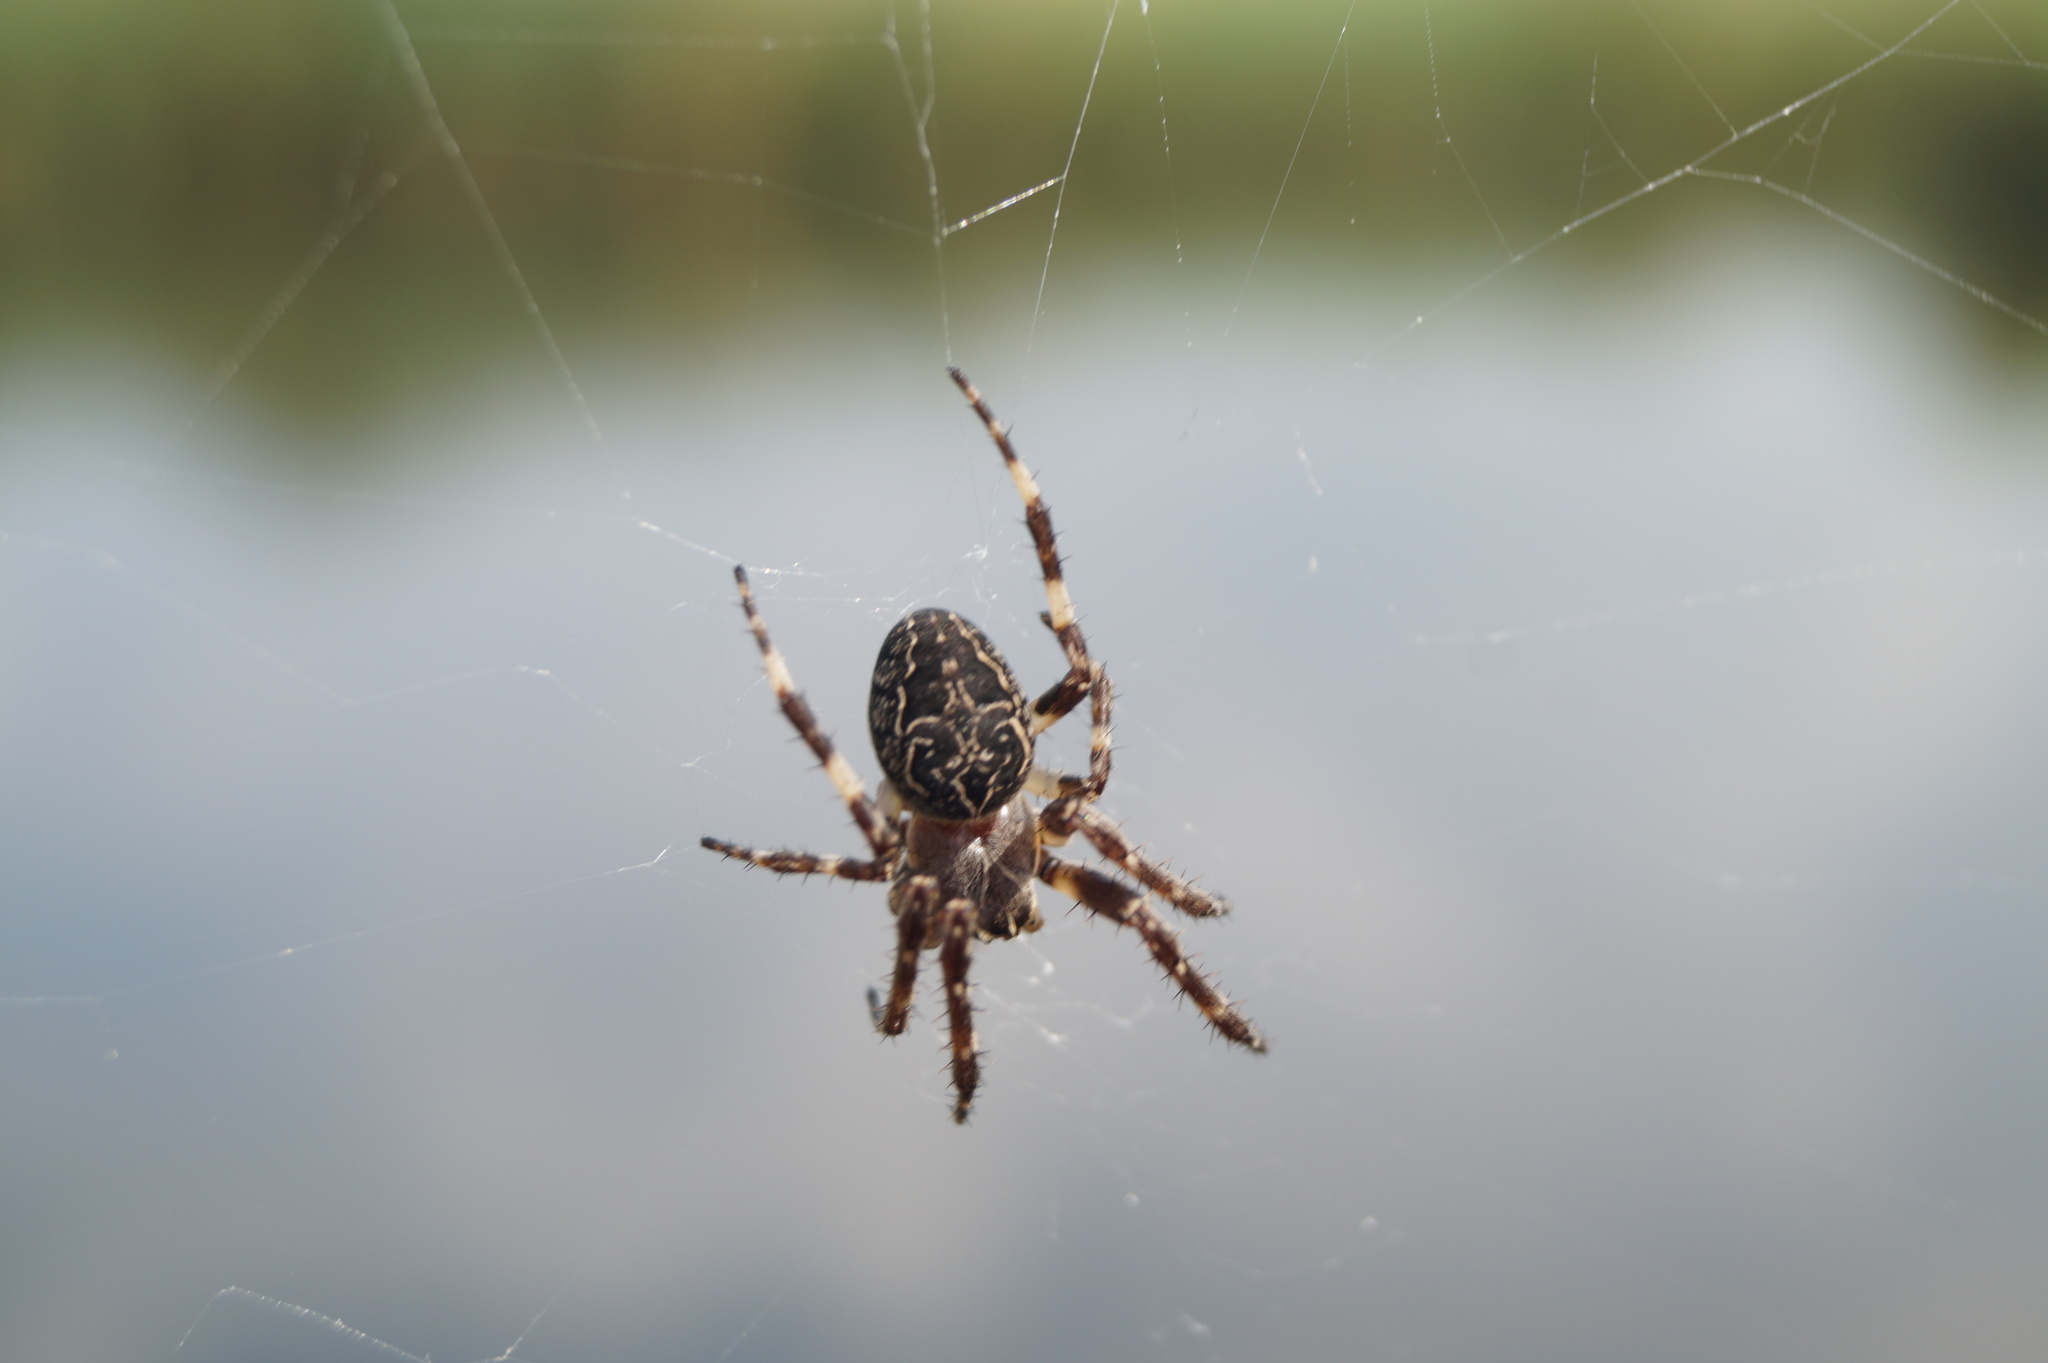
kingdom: Animalia
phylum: Arthropoda
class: Arachnida
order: Araneae
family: Araneidae
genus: Larinioides
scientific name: Larinioides sclopetarius
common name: Bridge orbweaver
